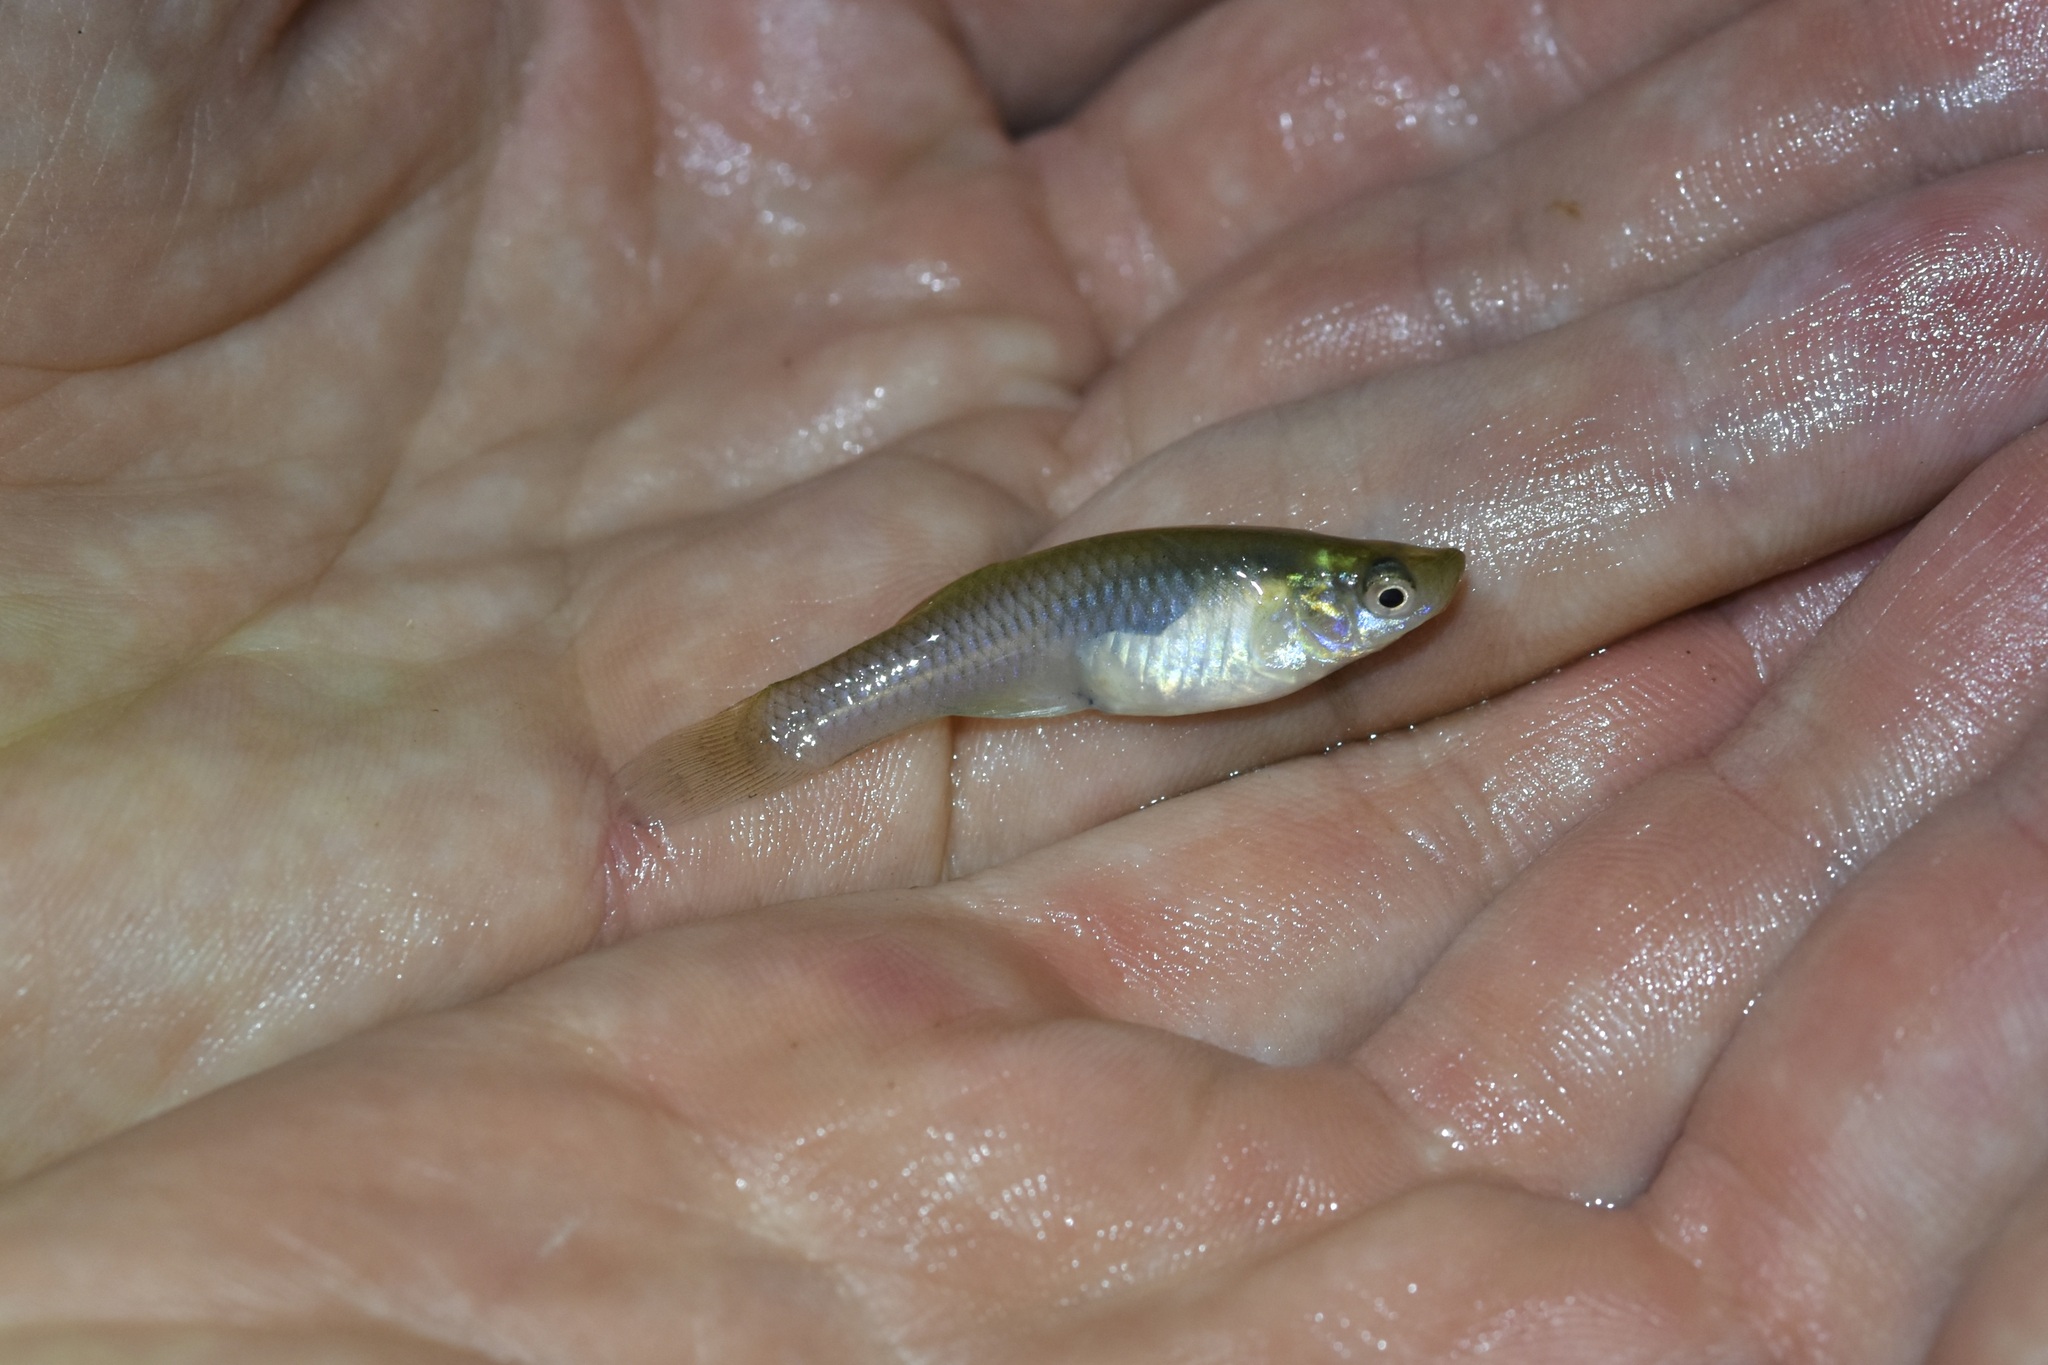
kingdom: Animalia
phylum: Chordata
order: Cyprinodontiformes
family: Poeciliidae
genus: Gambusia
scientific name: Gambusia affinis
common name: Mosquitofish
